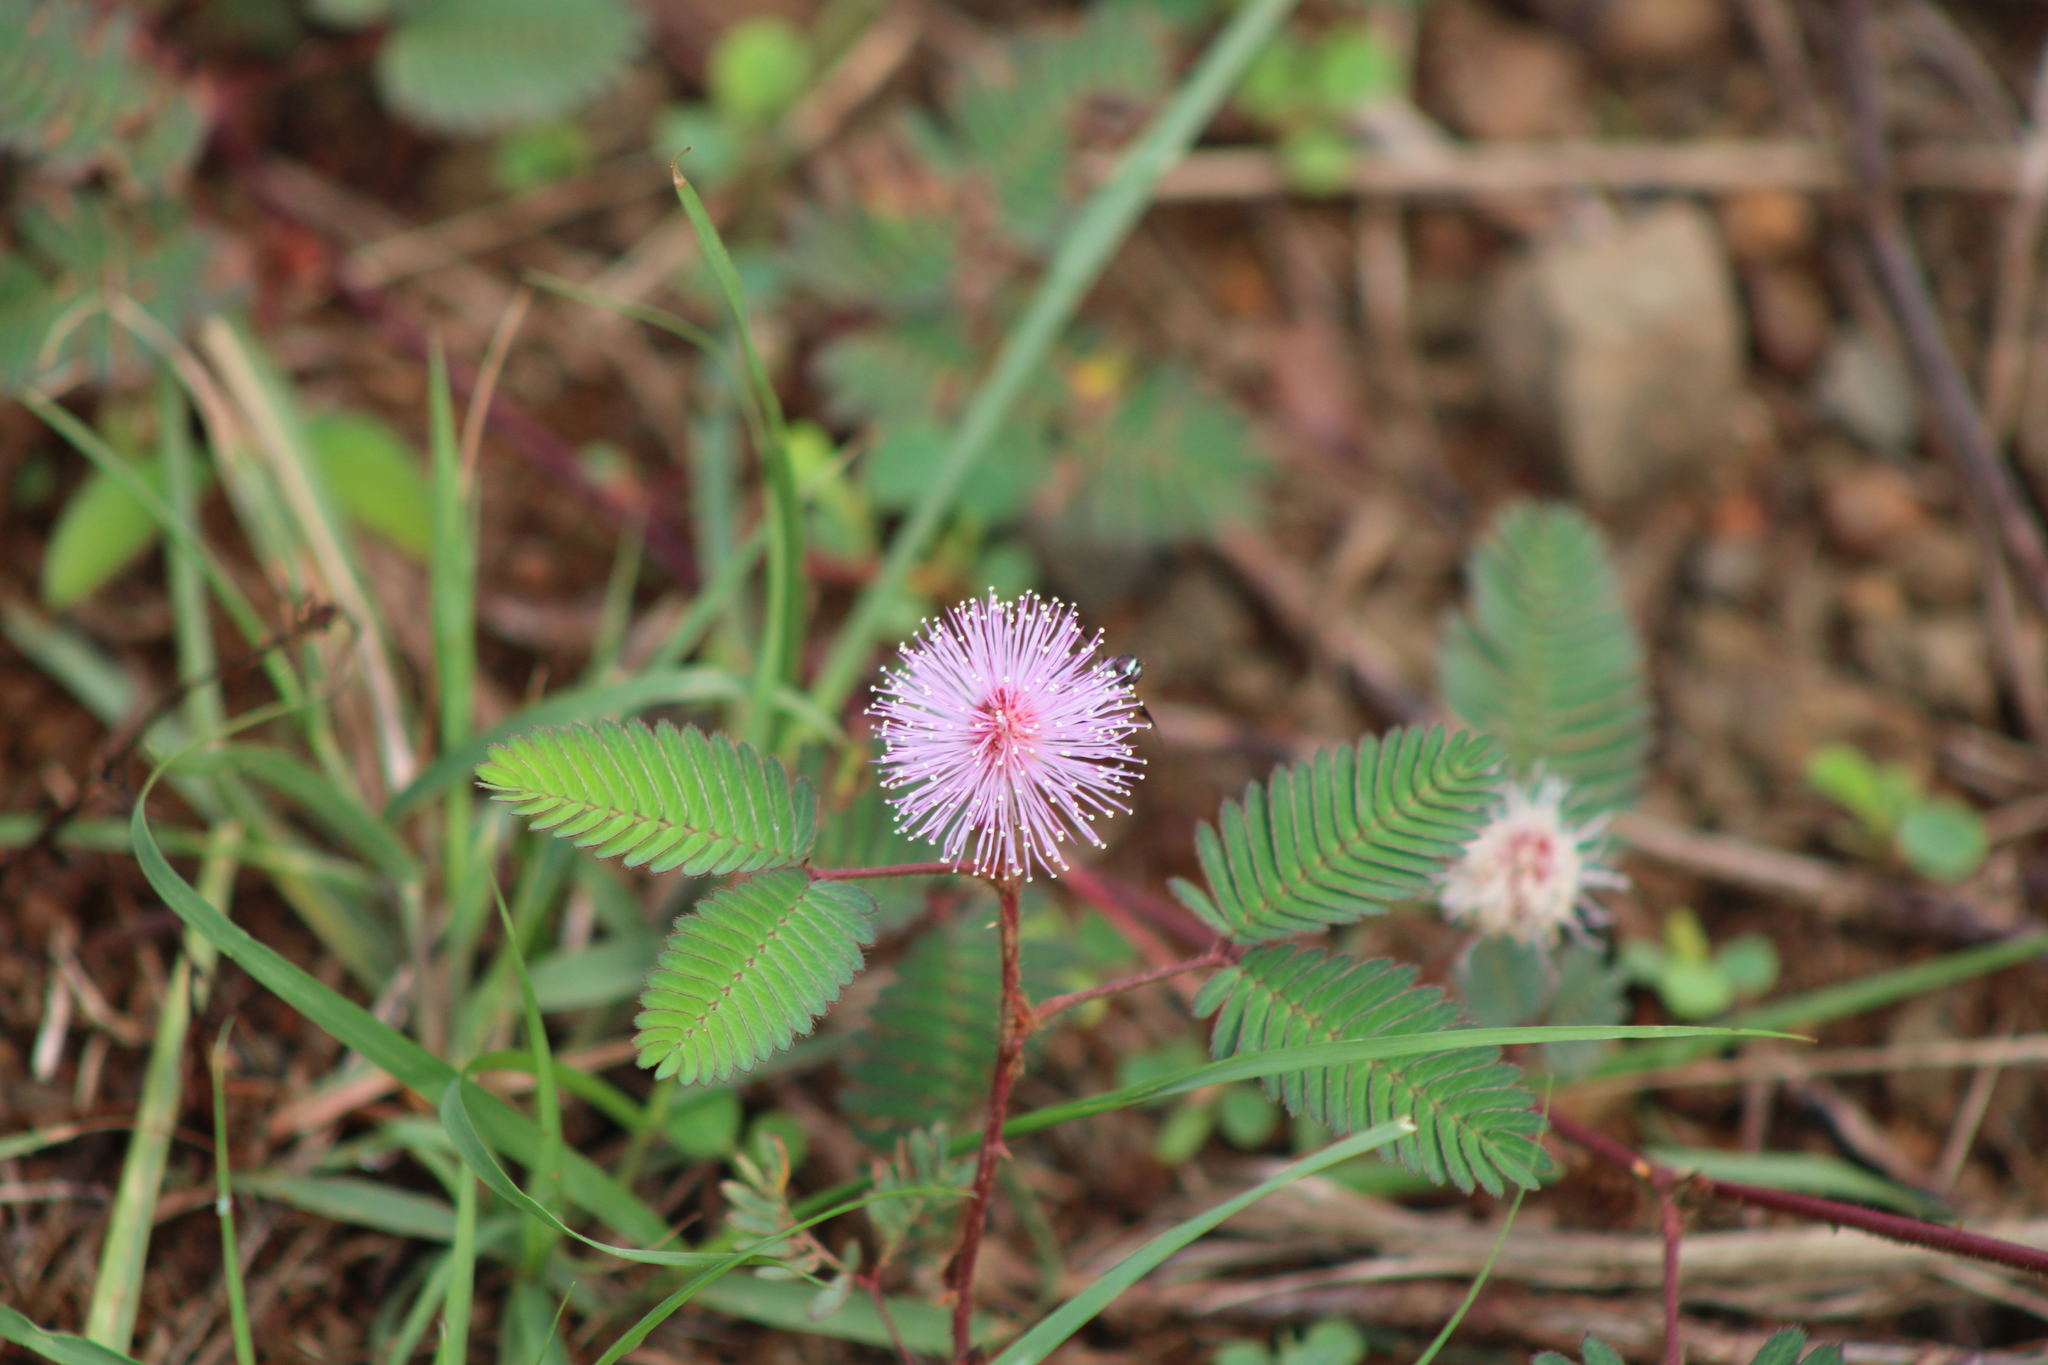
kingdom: Plantae
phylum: Tracheophyta
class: Magnoliopsida
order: Fabales
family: Fabaceae
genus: Mimosa
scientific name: Mimosa pudica
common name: Sensitive plant
